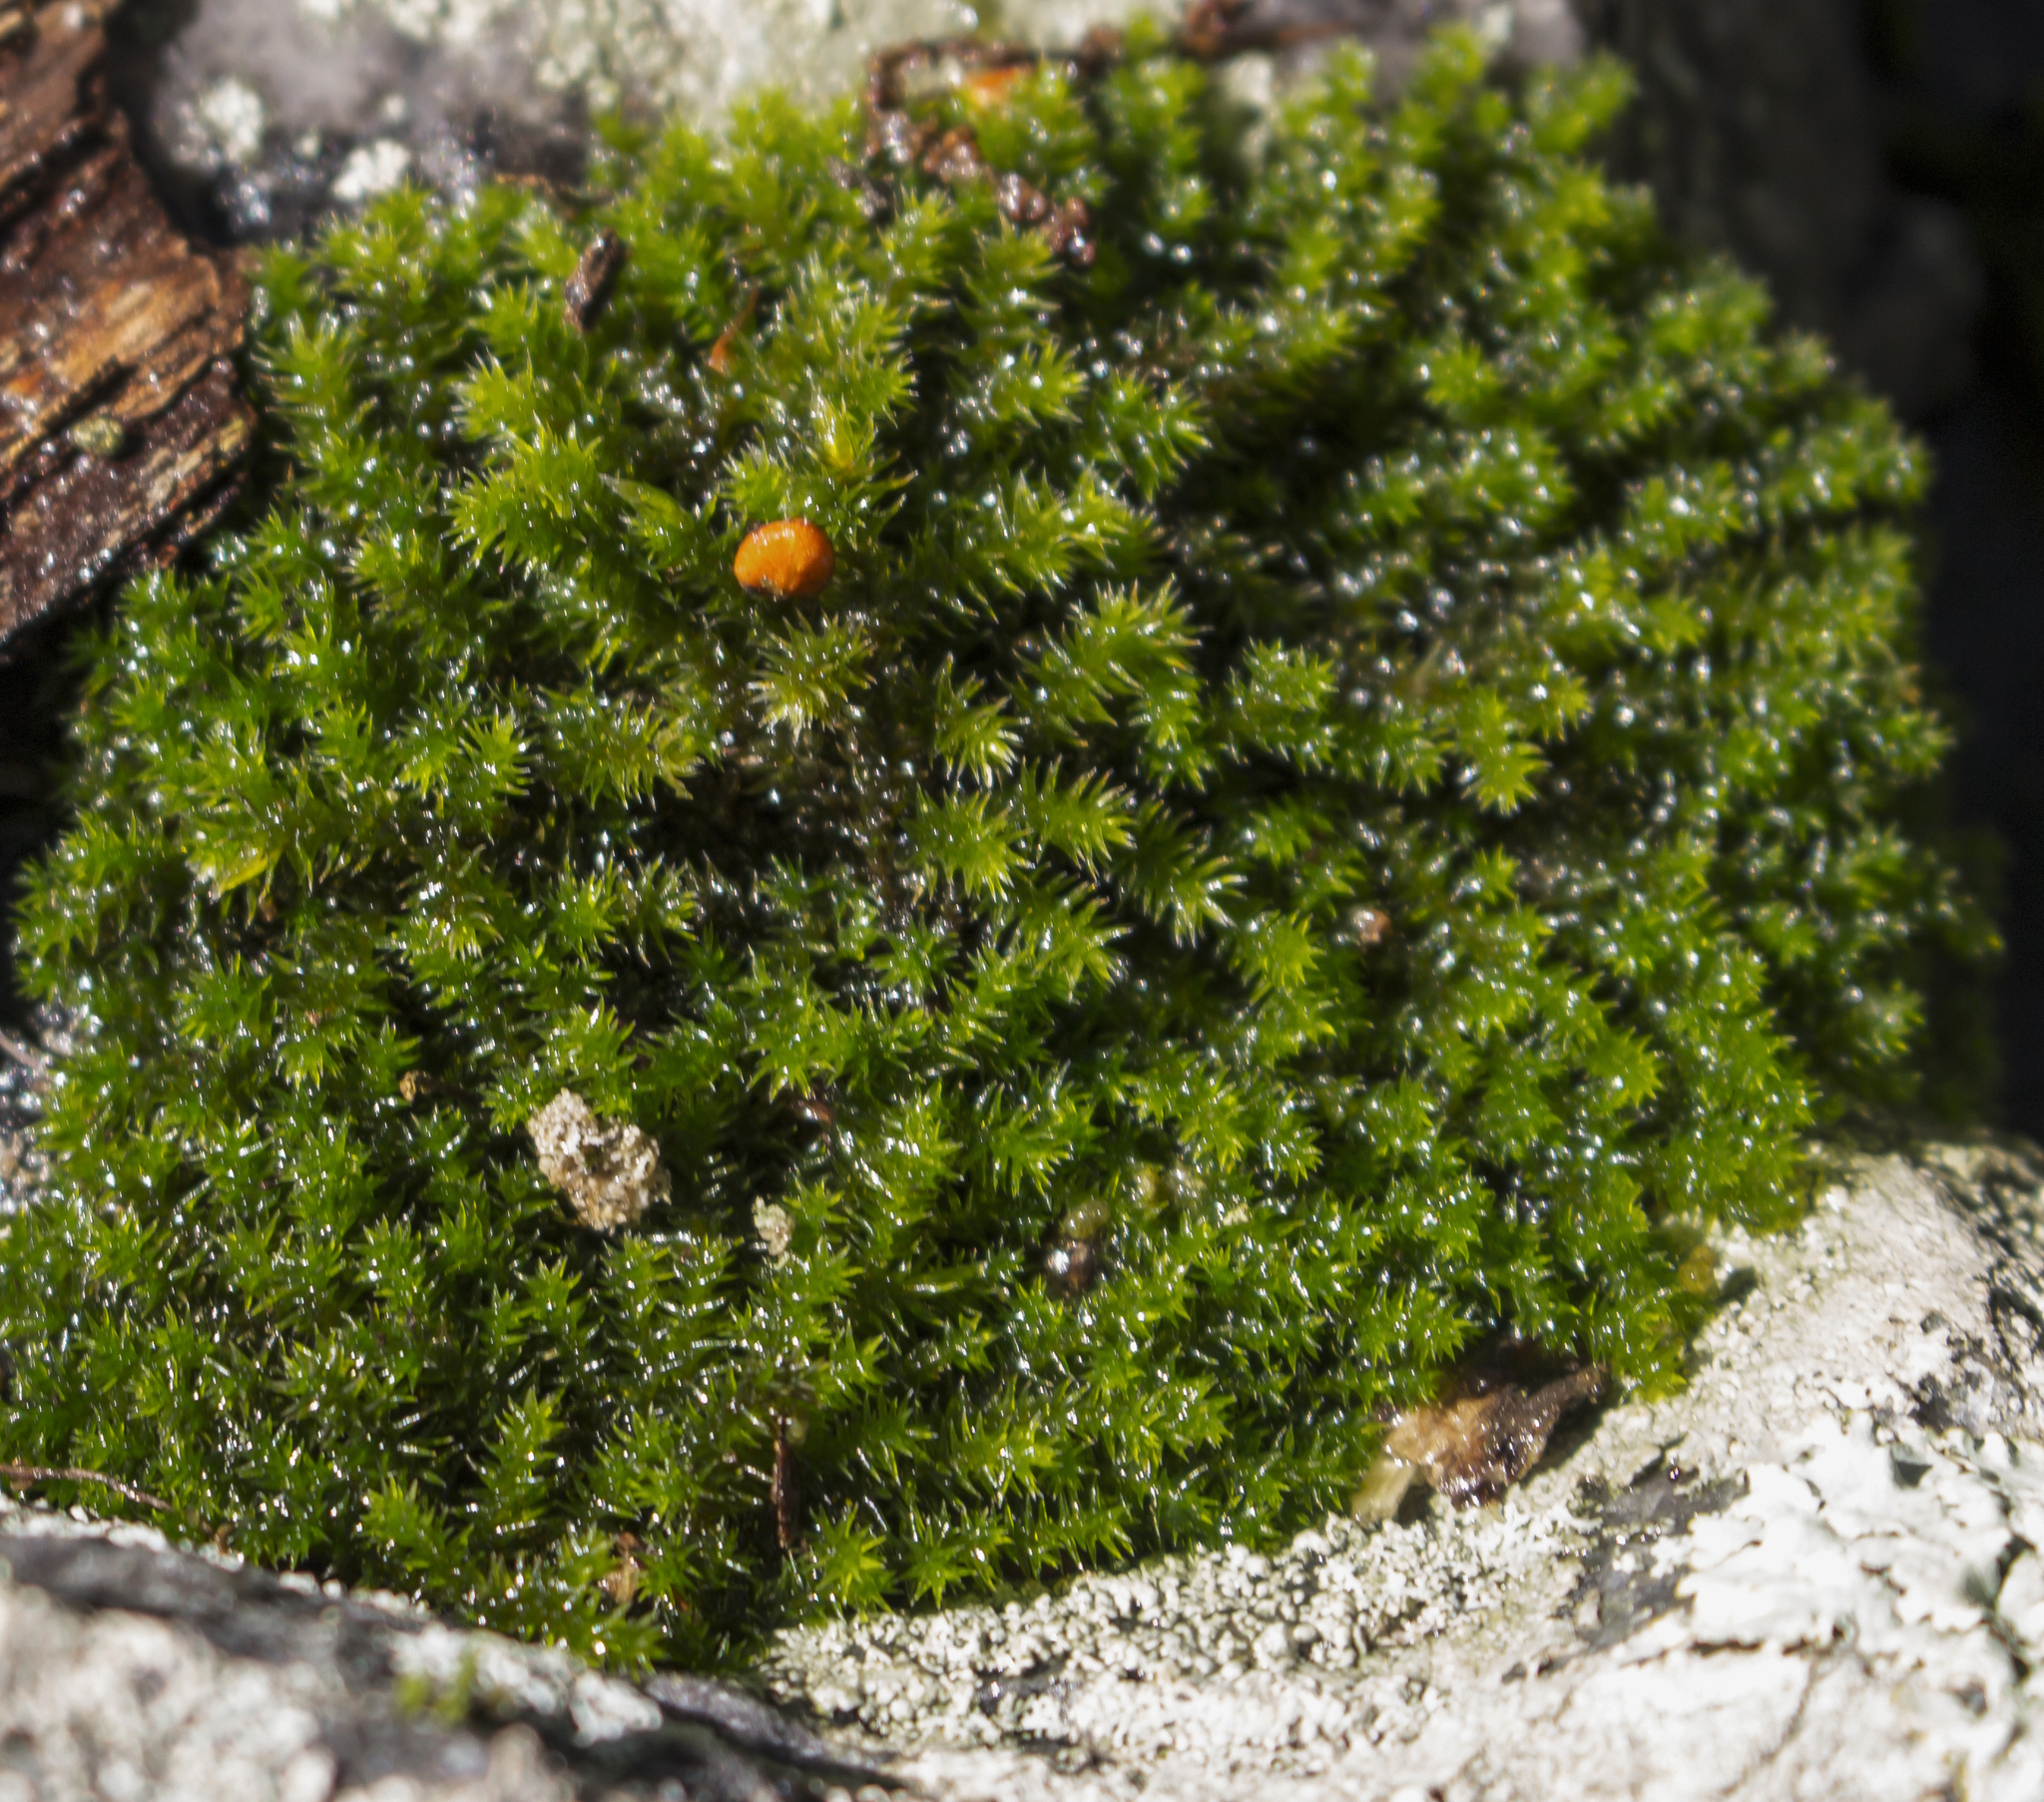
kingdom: Plantae
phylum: Bryophyta
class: Bryopsida
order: Hedwigiales
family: Hedwigiaceae
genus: Hedwigia
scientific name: Hedwigia ciliata
